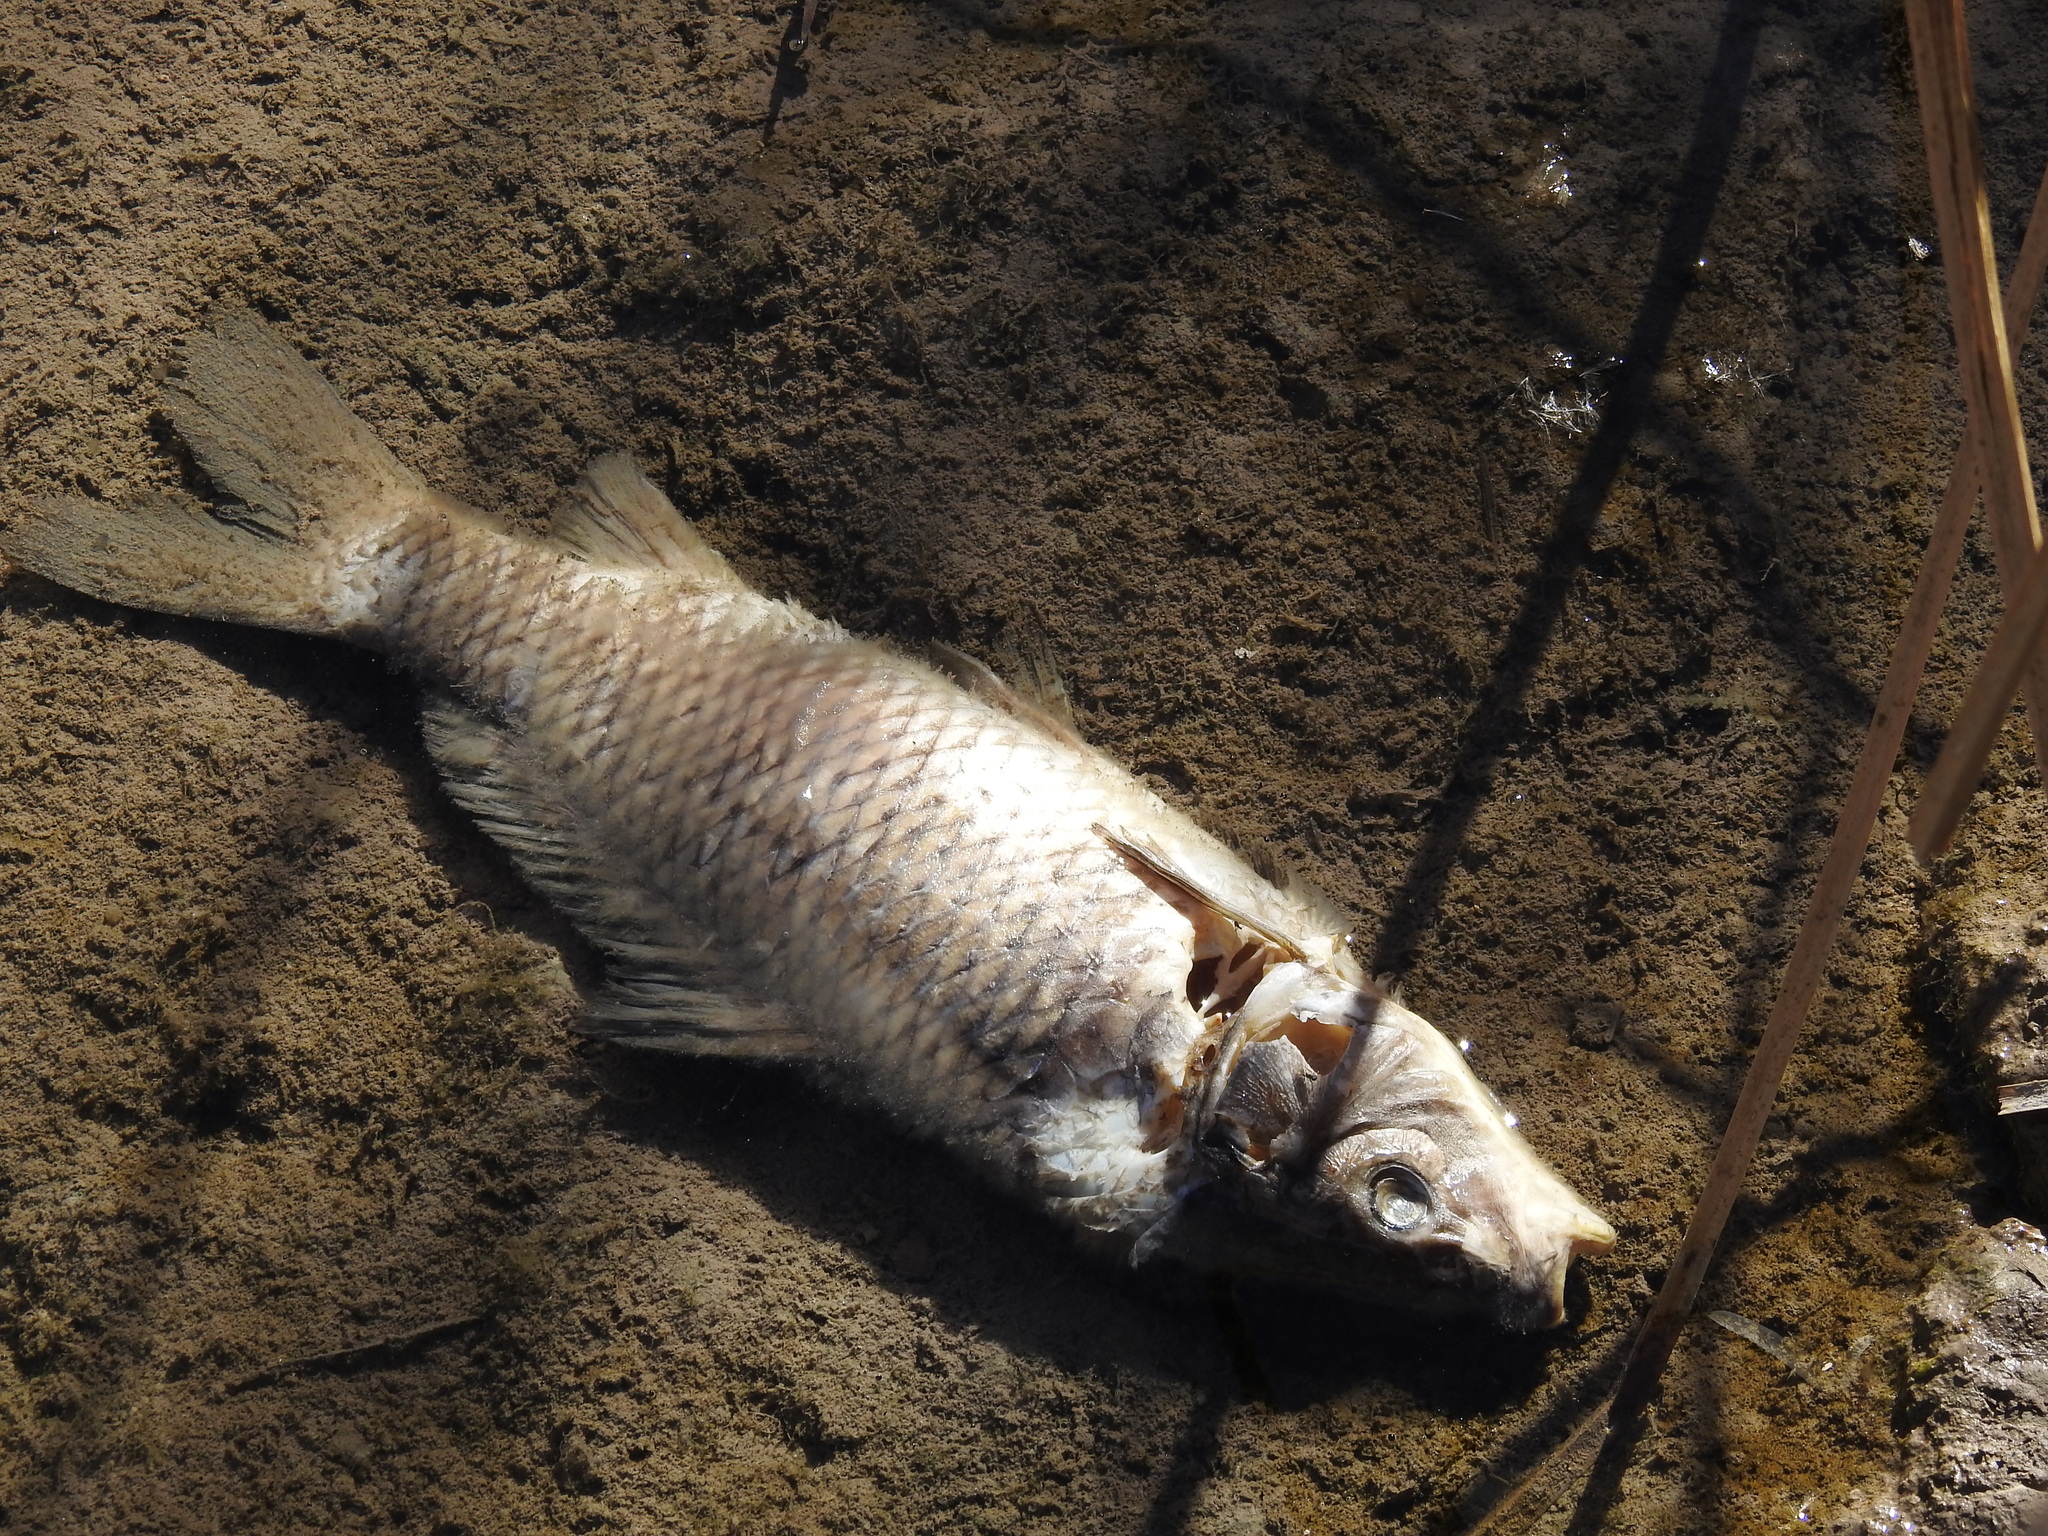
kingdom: Animalia
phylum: Chordata
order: Cypriniformes
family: Cyprinidae
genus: Cyprinus
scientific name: Cyprinus carpio
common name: Common carp
